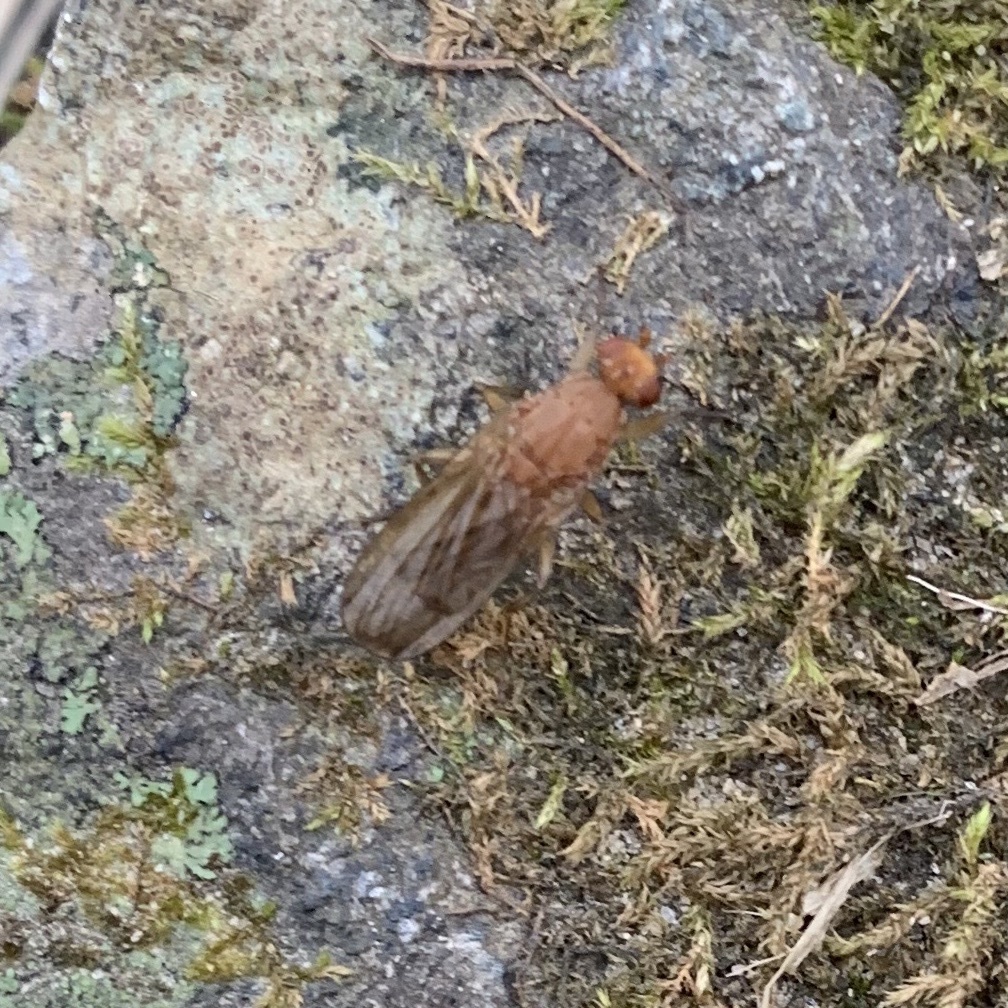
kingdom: Animalia
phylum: Arthropoda
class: Insecta
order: Diptera
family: Heleomyzidae
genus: Amoebaleria
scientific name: Amoebaleria helvola
